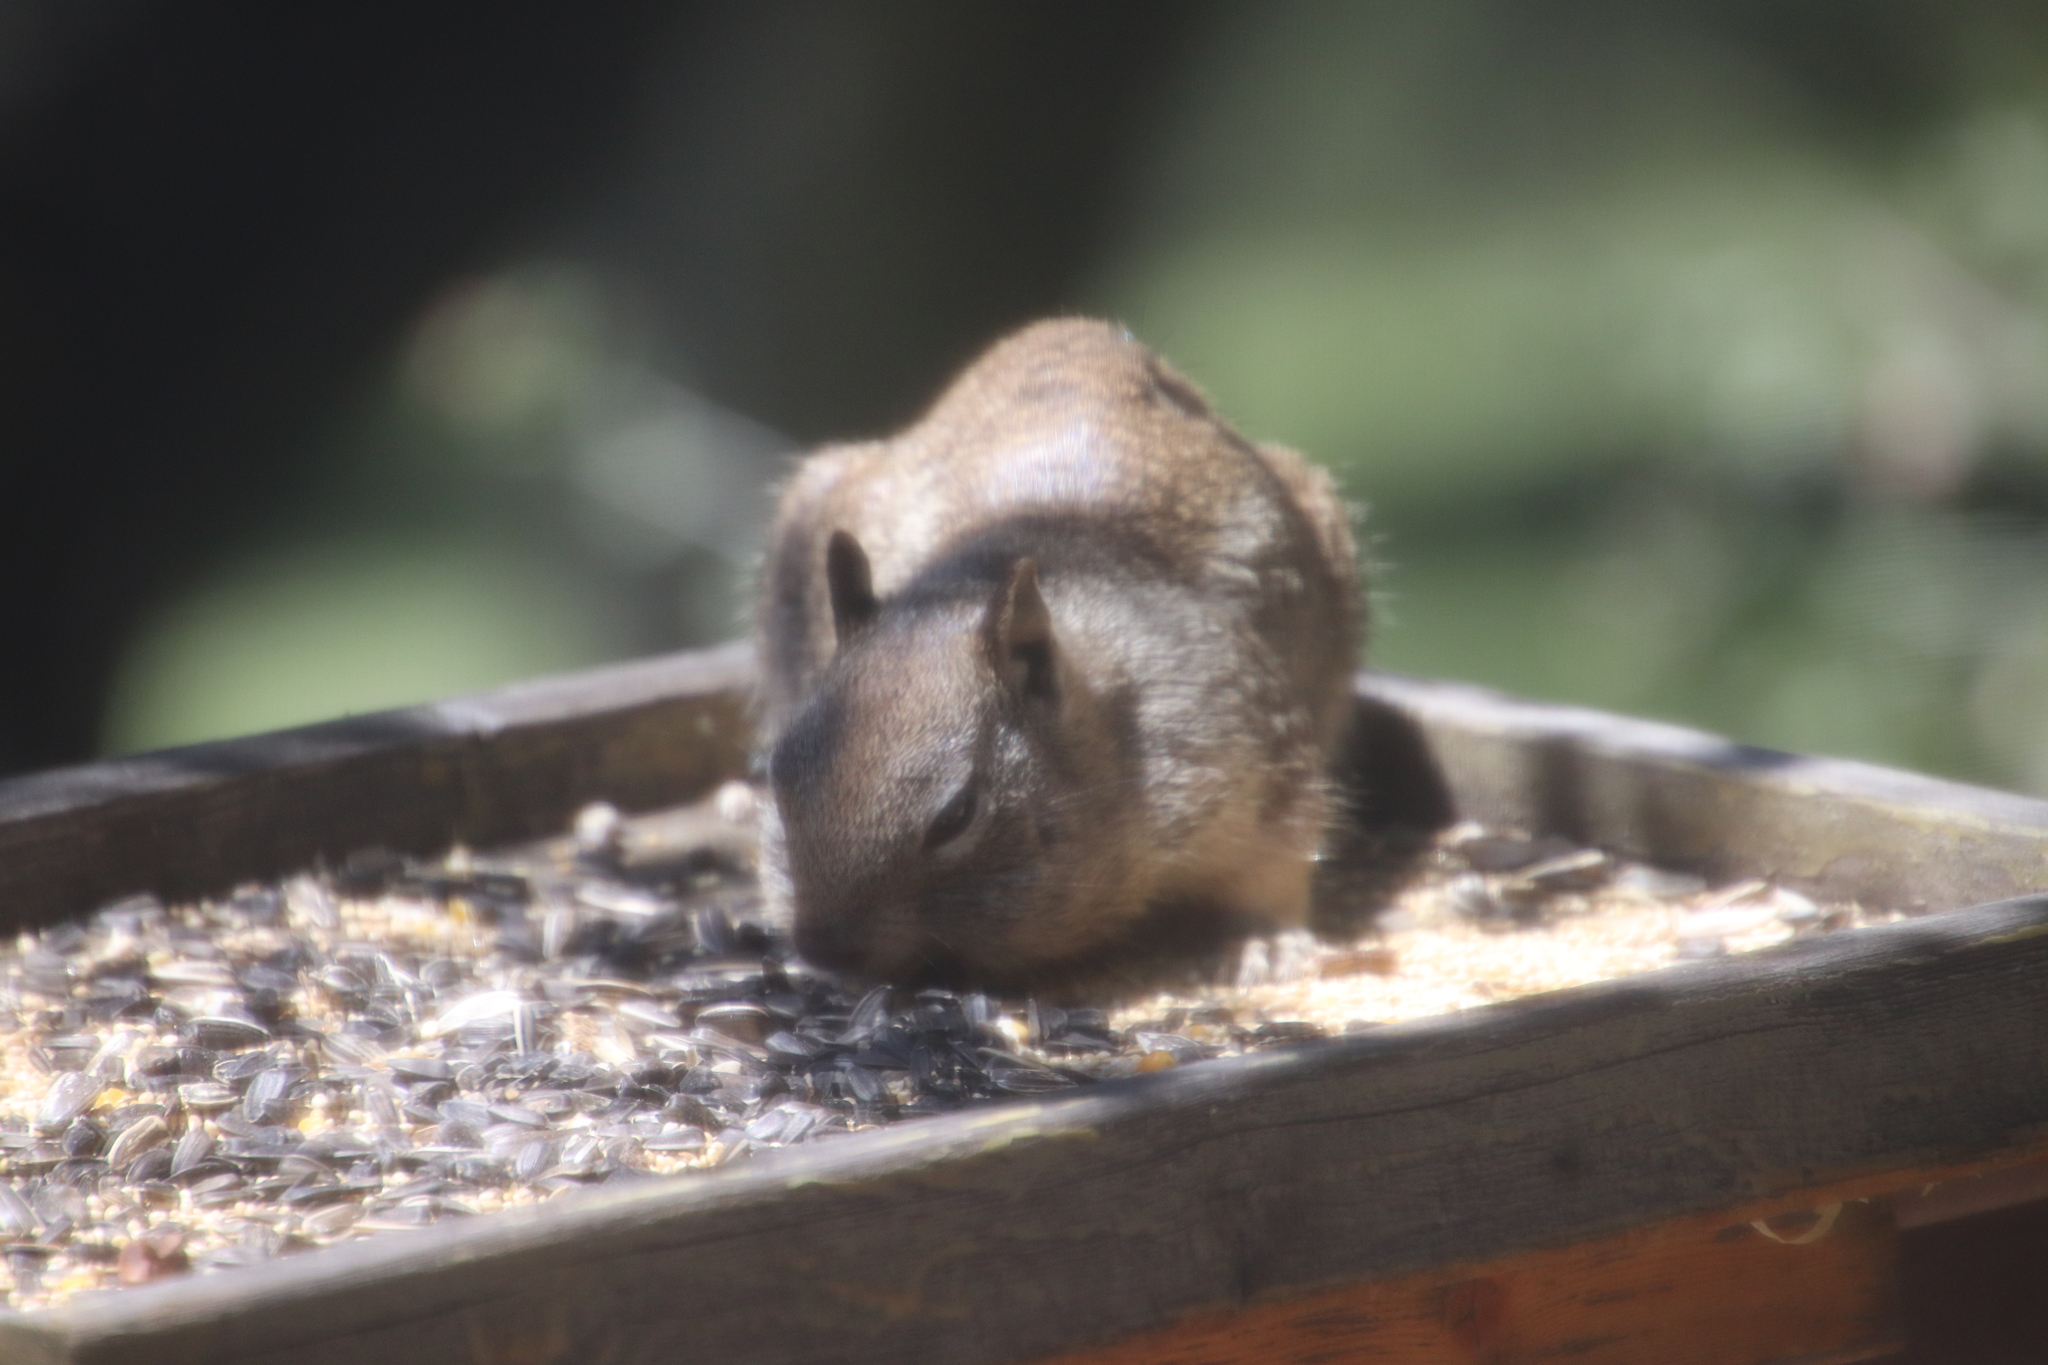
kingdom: Animalia
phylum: Chordata
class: Mammalia
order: Rodentia
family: Sciuridae
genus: Otospermophilus
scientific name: Otospermophilus beecheyi
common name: California ground squirrel
